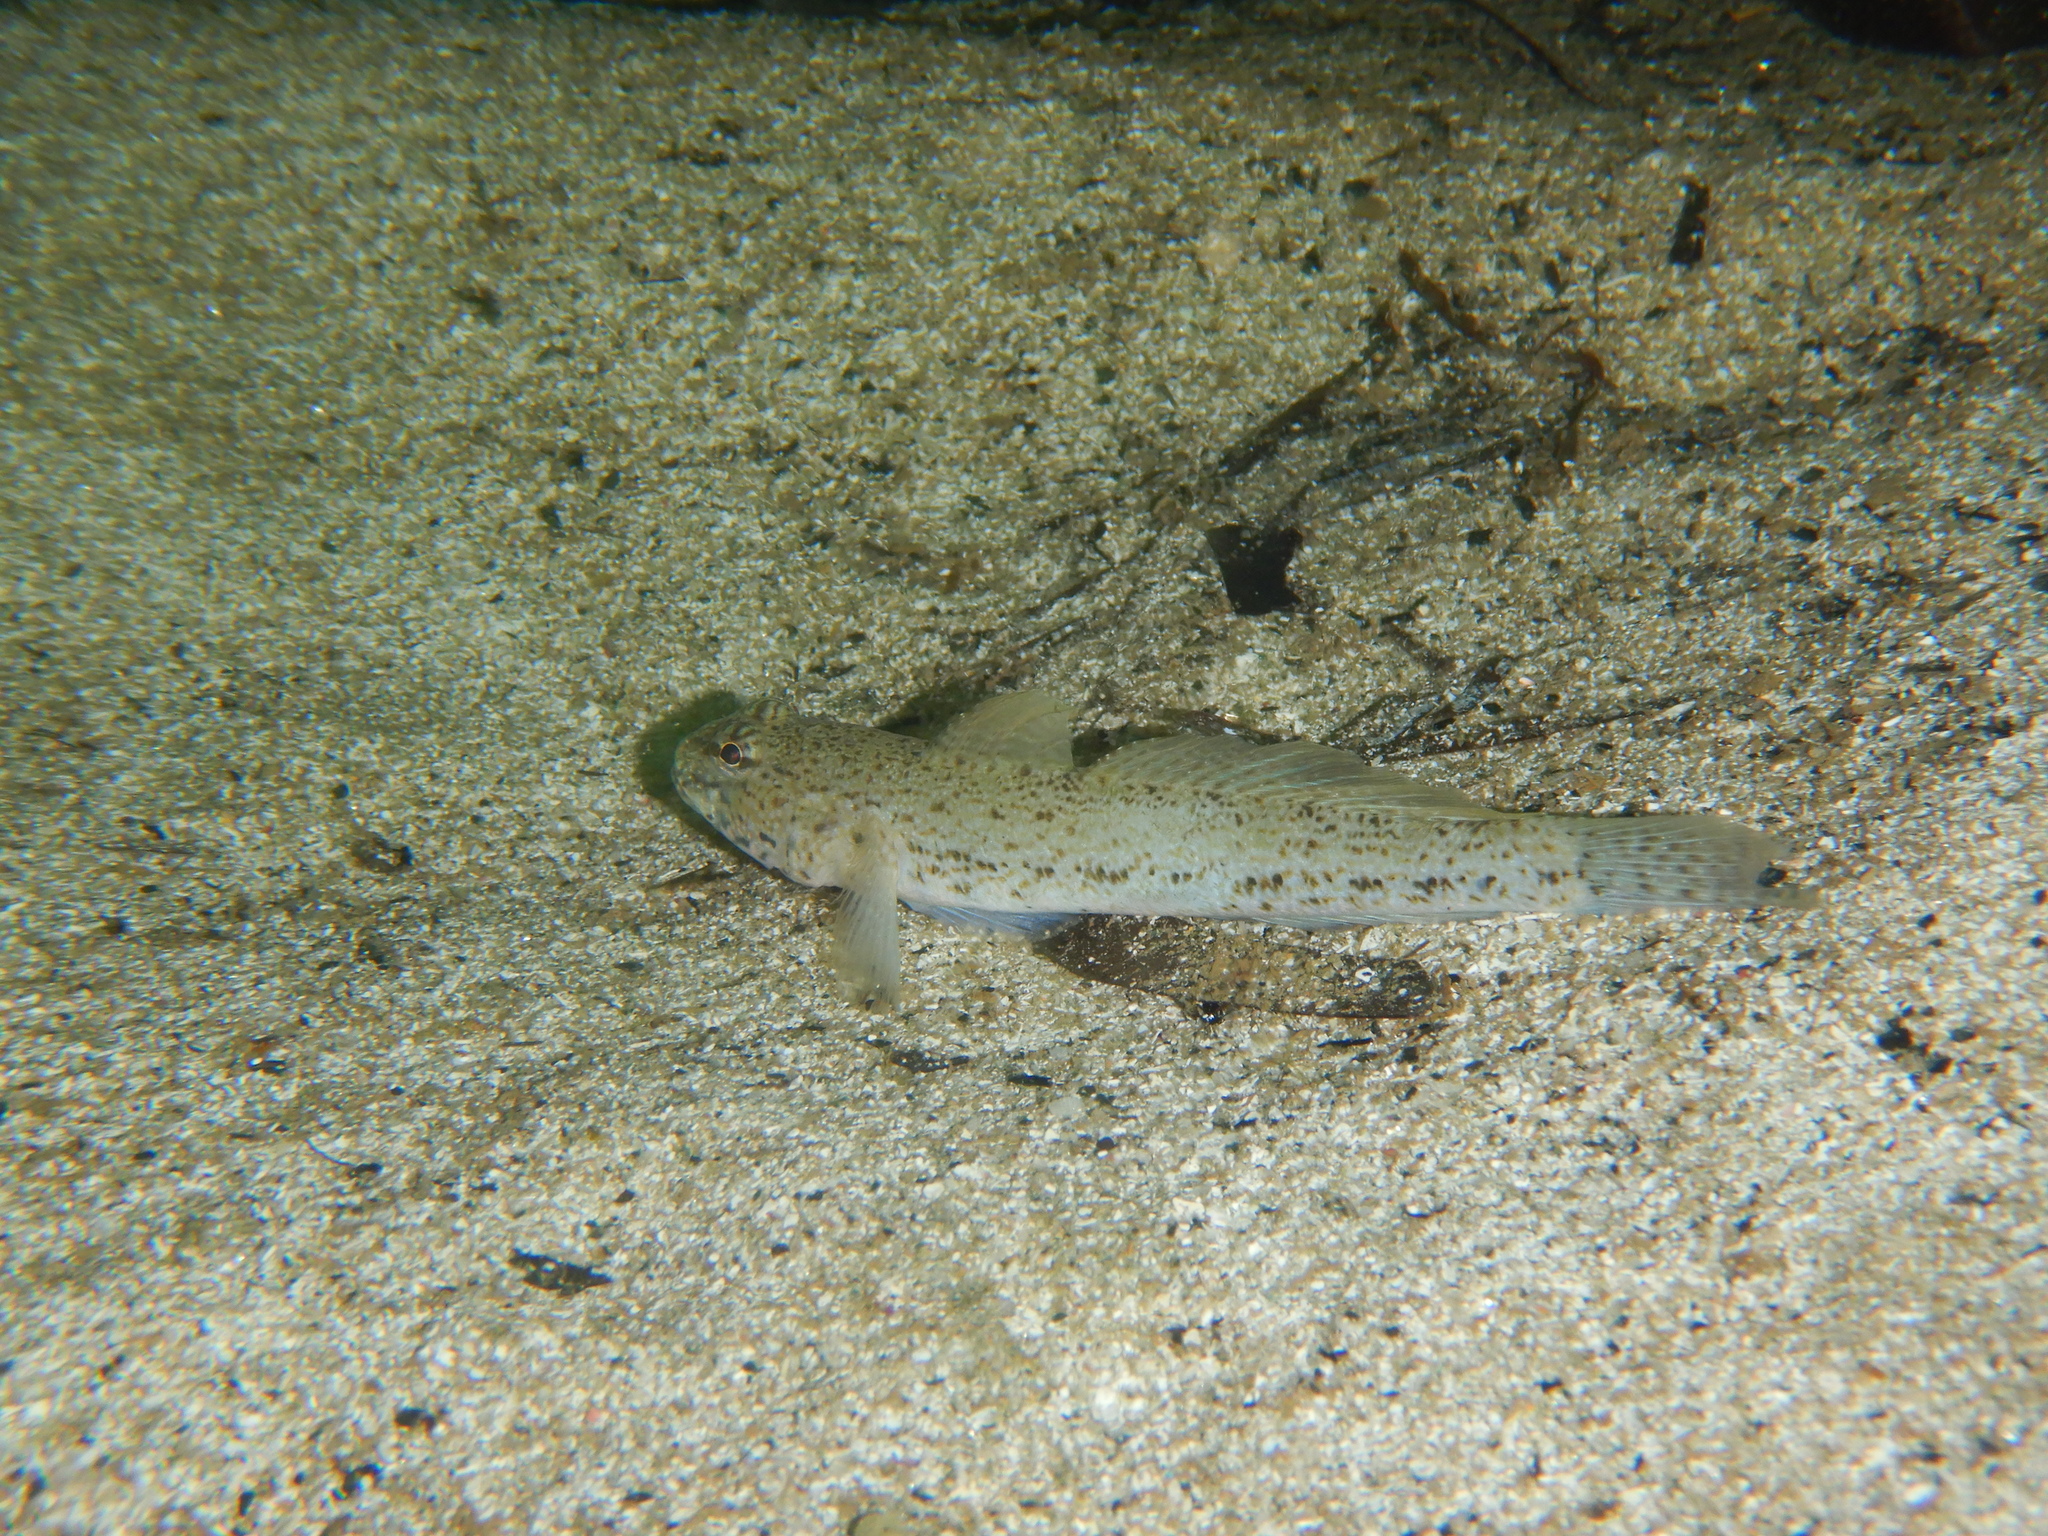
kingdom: Animalia
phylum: Chordata
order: Perciformes
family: Gobiidae
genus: Gobius
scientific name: Gobius incognitus
